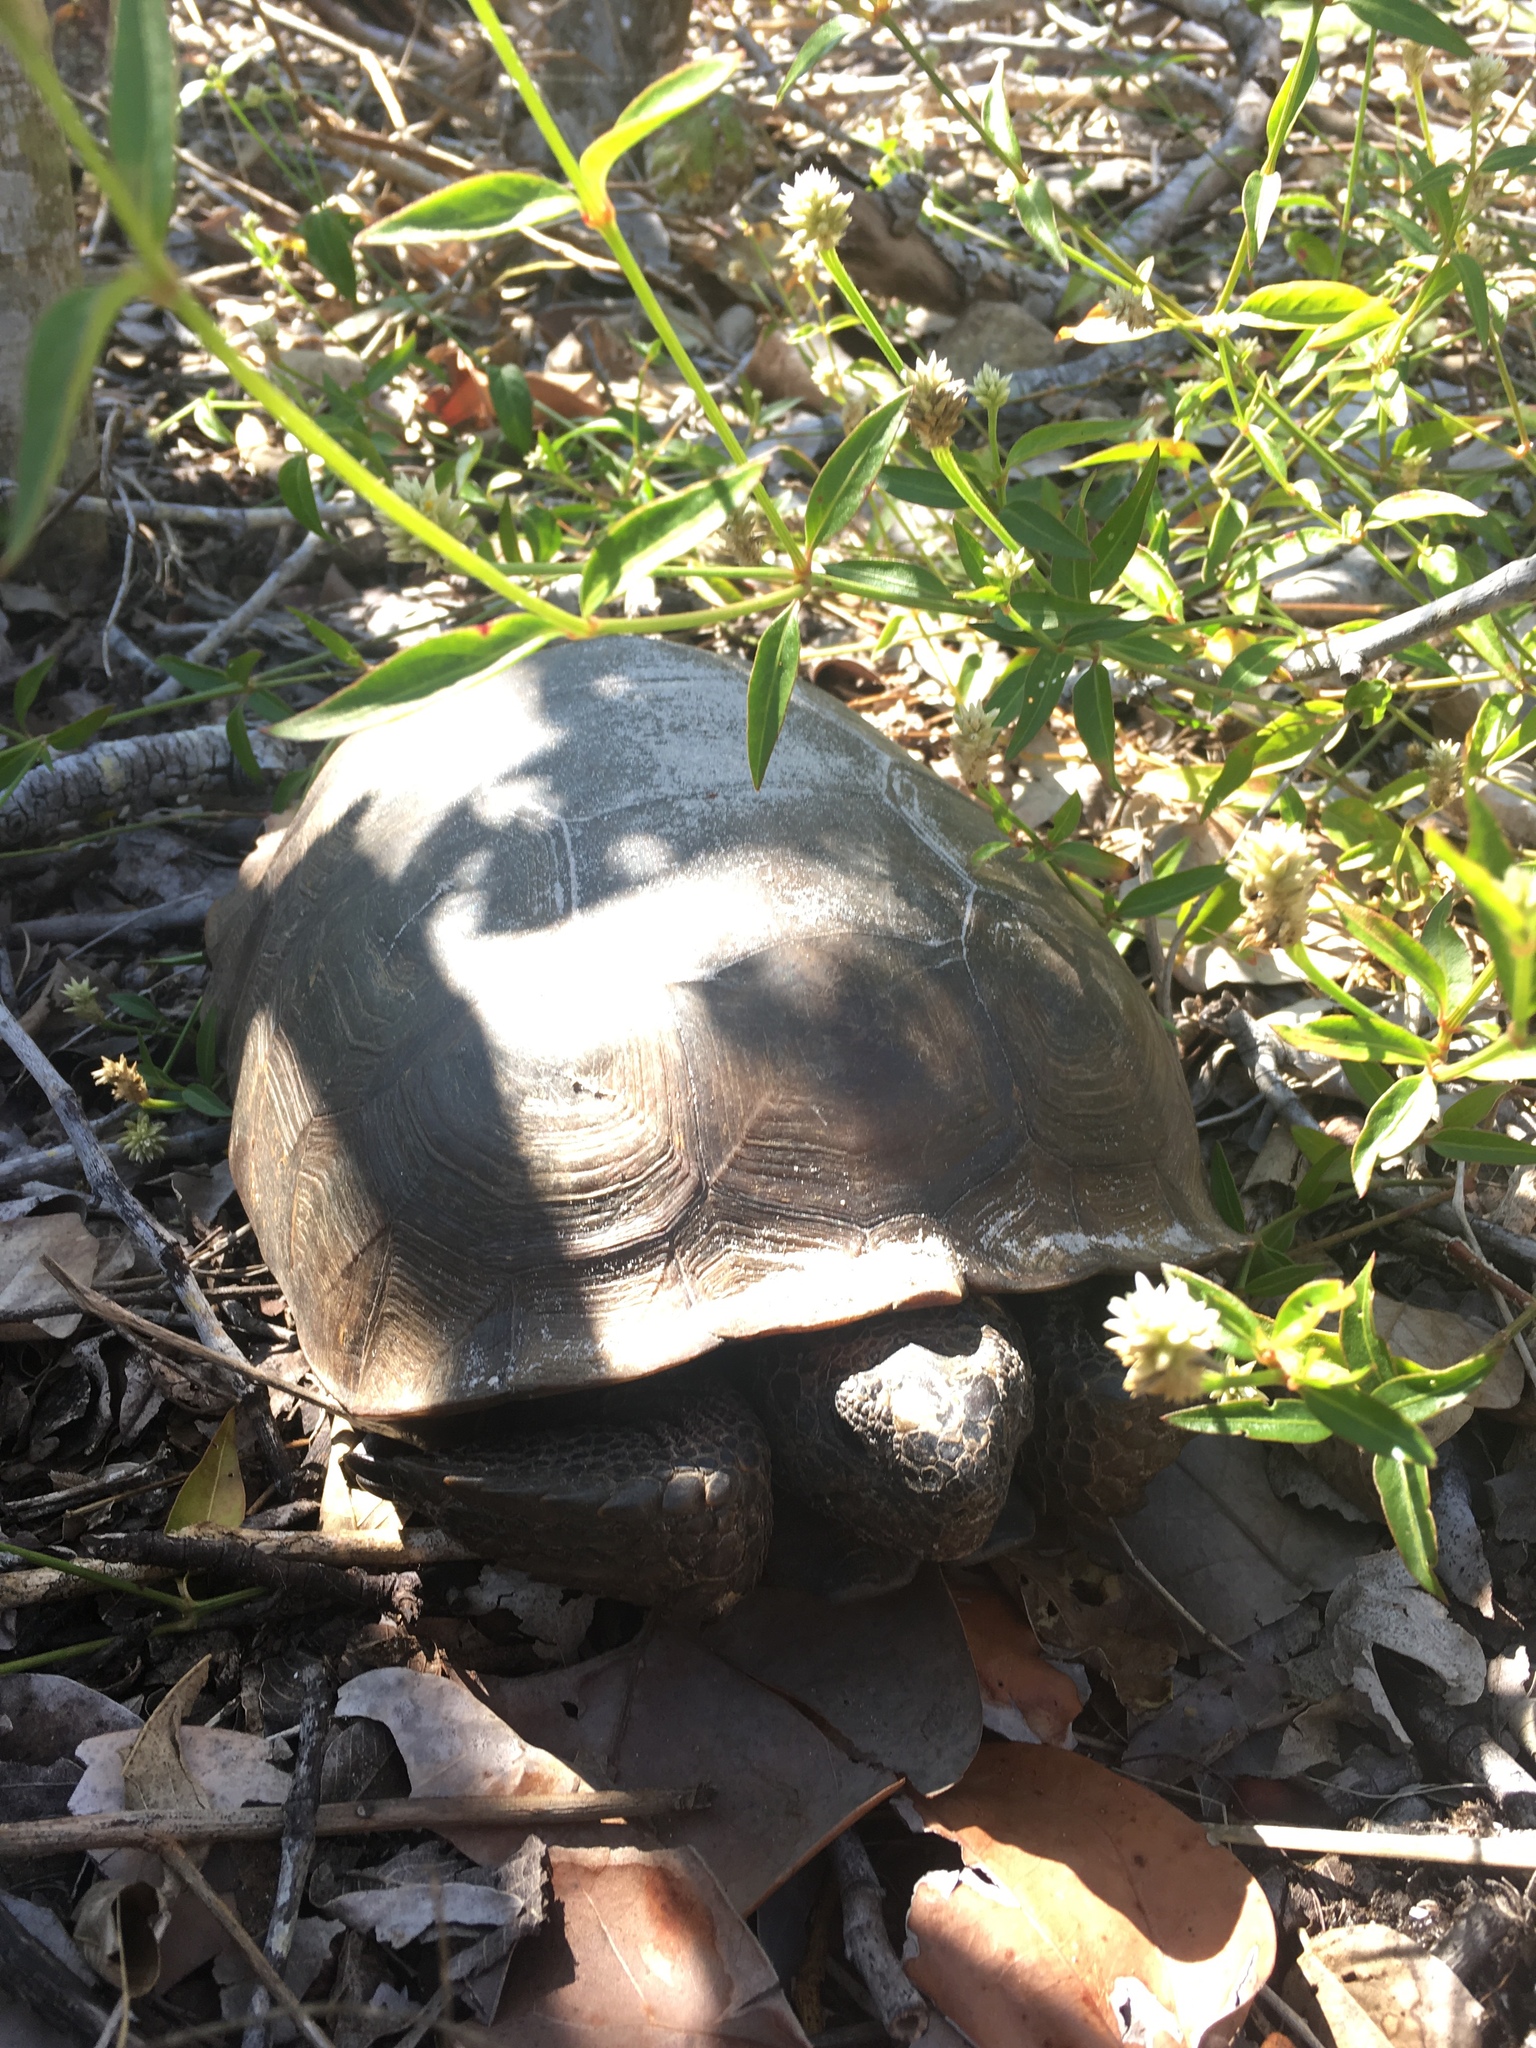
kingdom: Animalia
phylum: Chordata
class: Testudines
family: Testudinidae
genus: Gopherus
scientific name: Gopherus polyphemus
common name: Florida gopher tortoise
